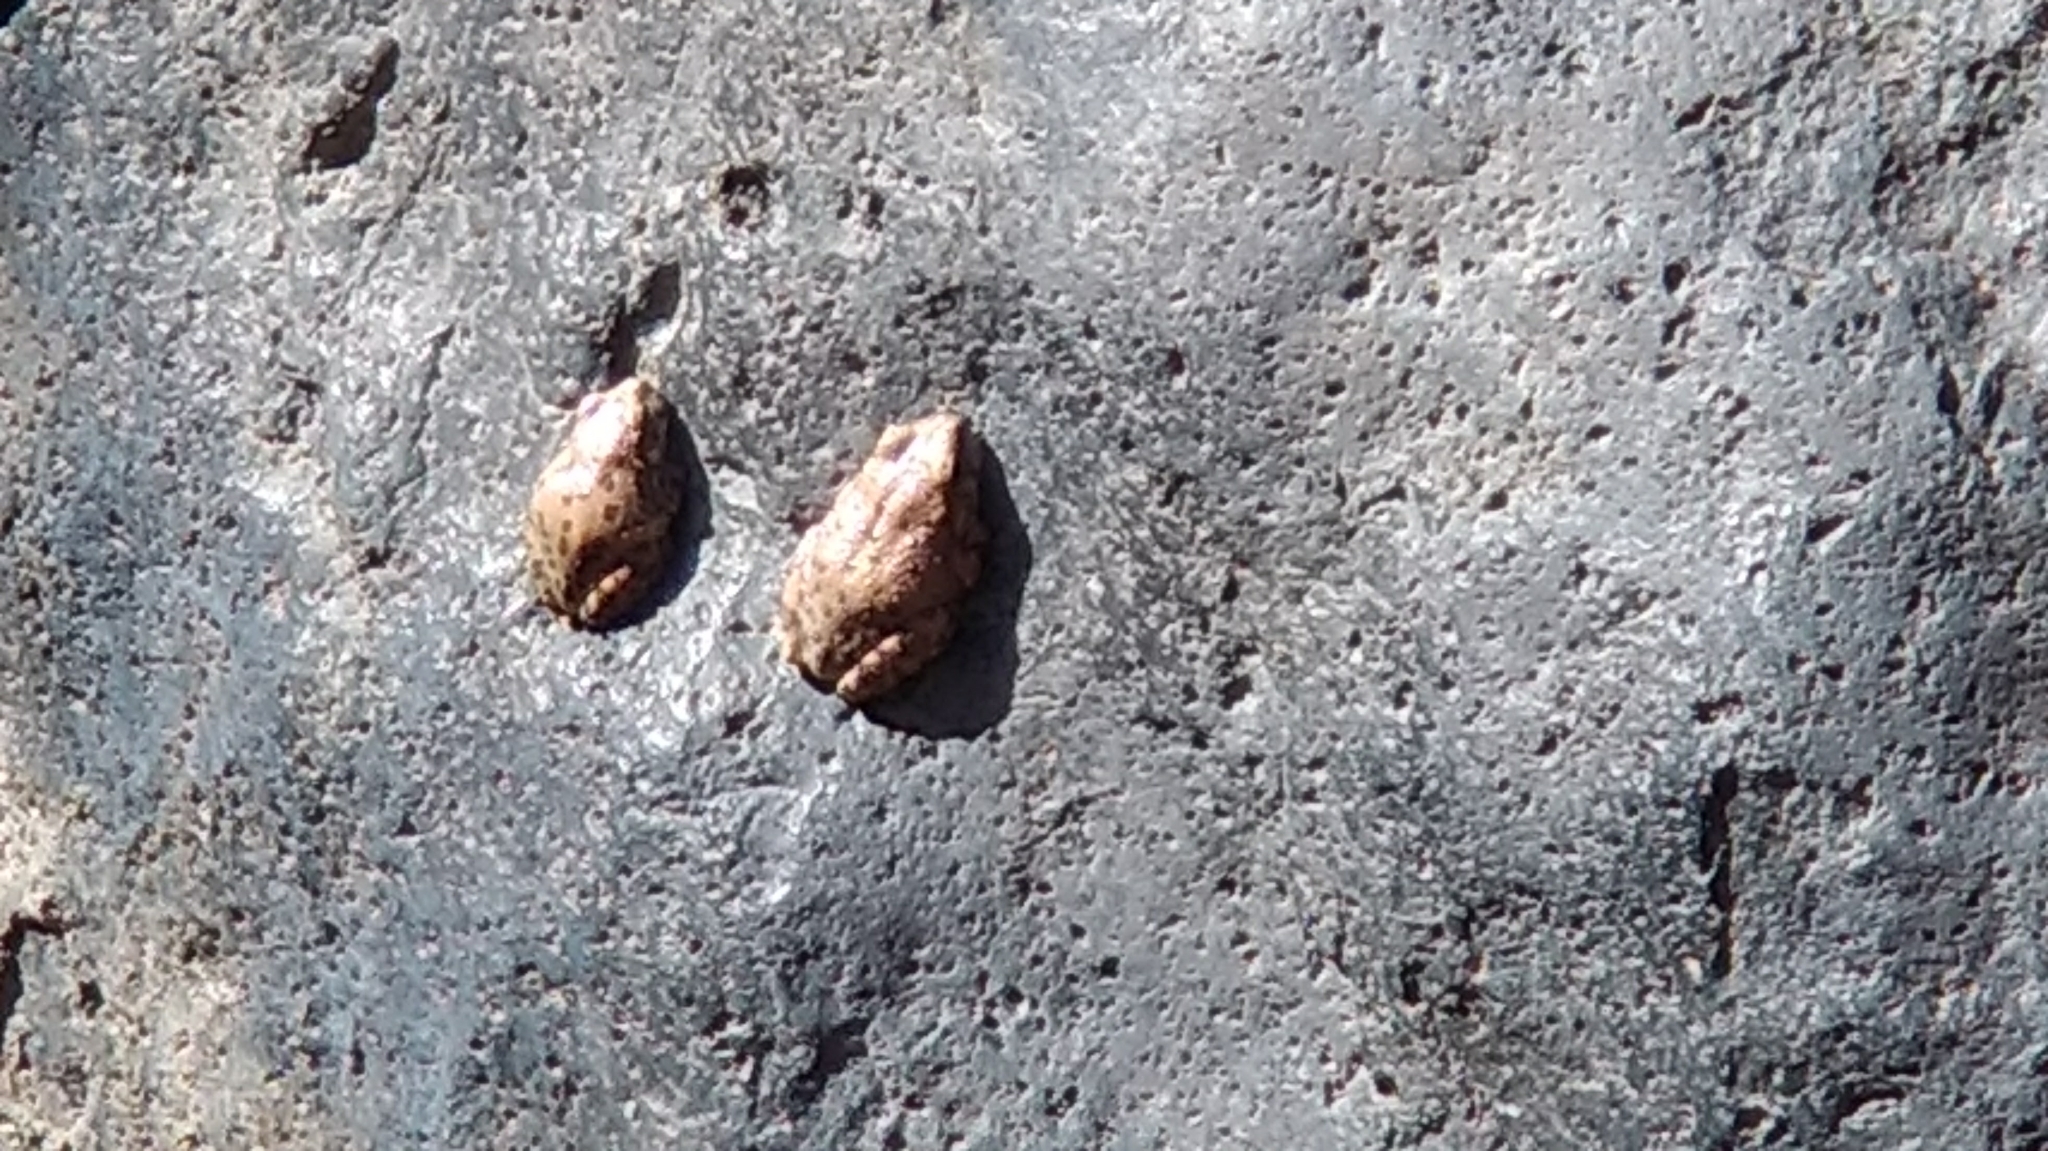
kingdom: Animalia
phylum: Chordata
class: Amphibia
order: Anura
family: Hylidae
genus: Dryophytes
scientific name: Dryophytes arenicolor
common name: Canyon treefrog
